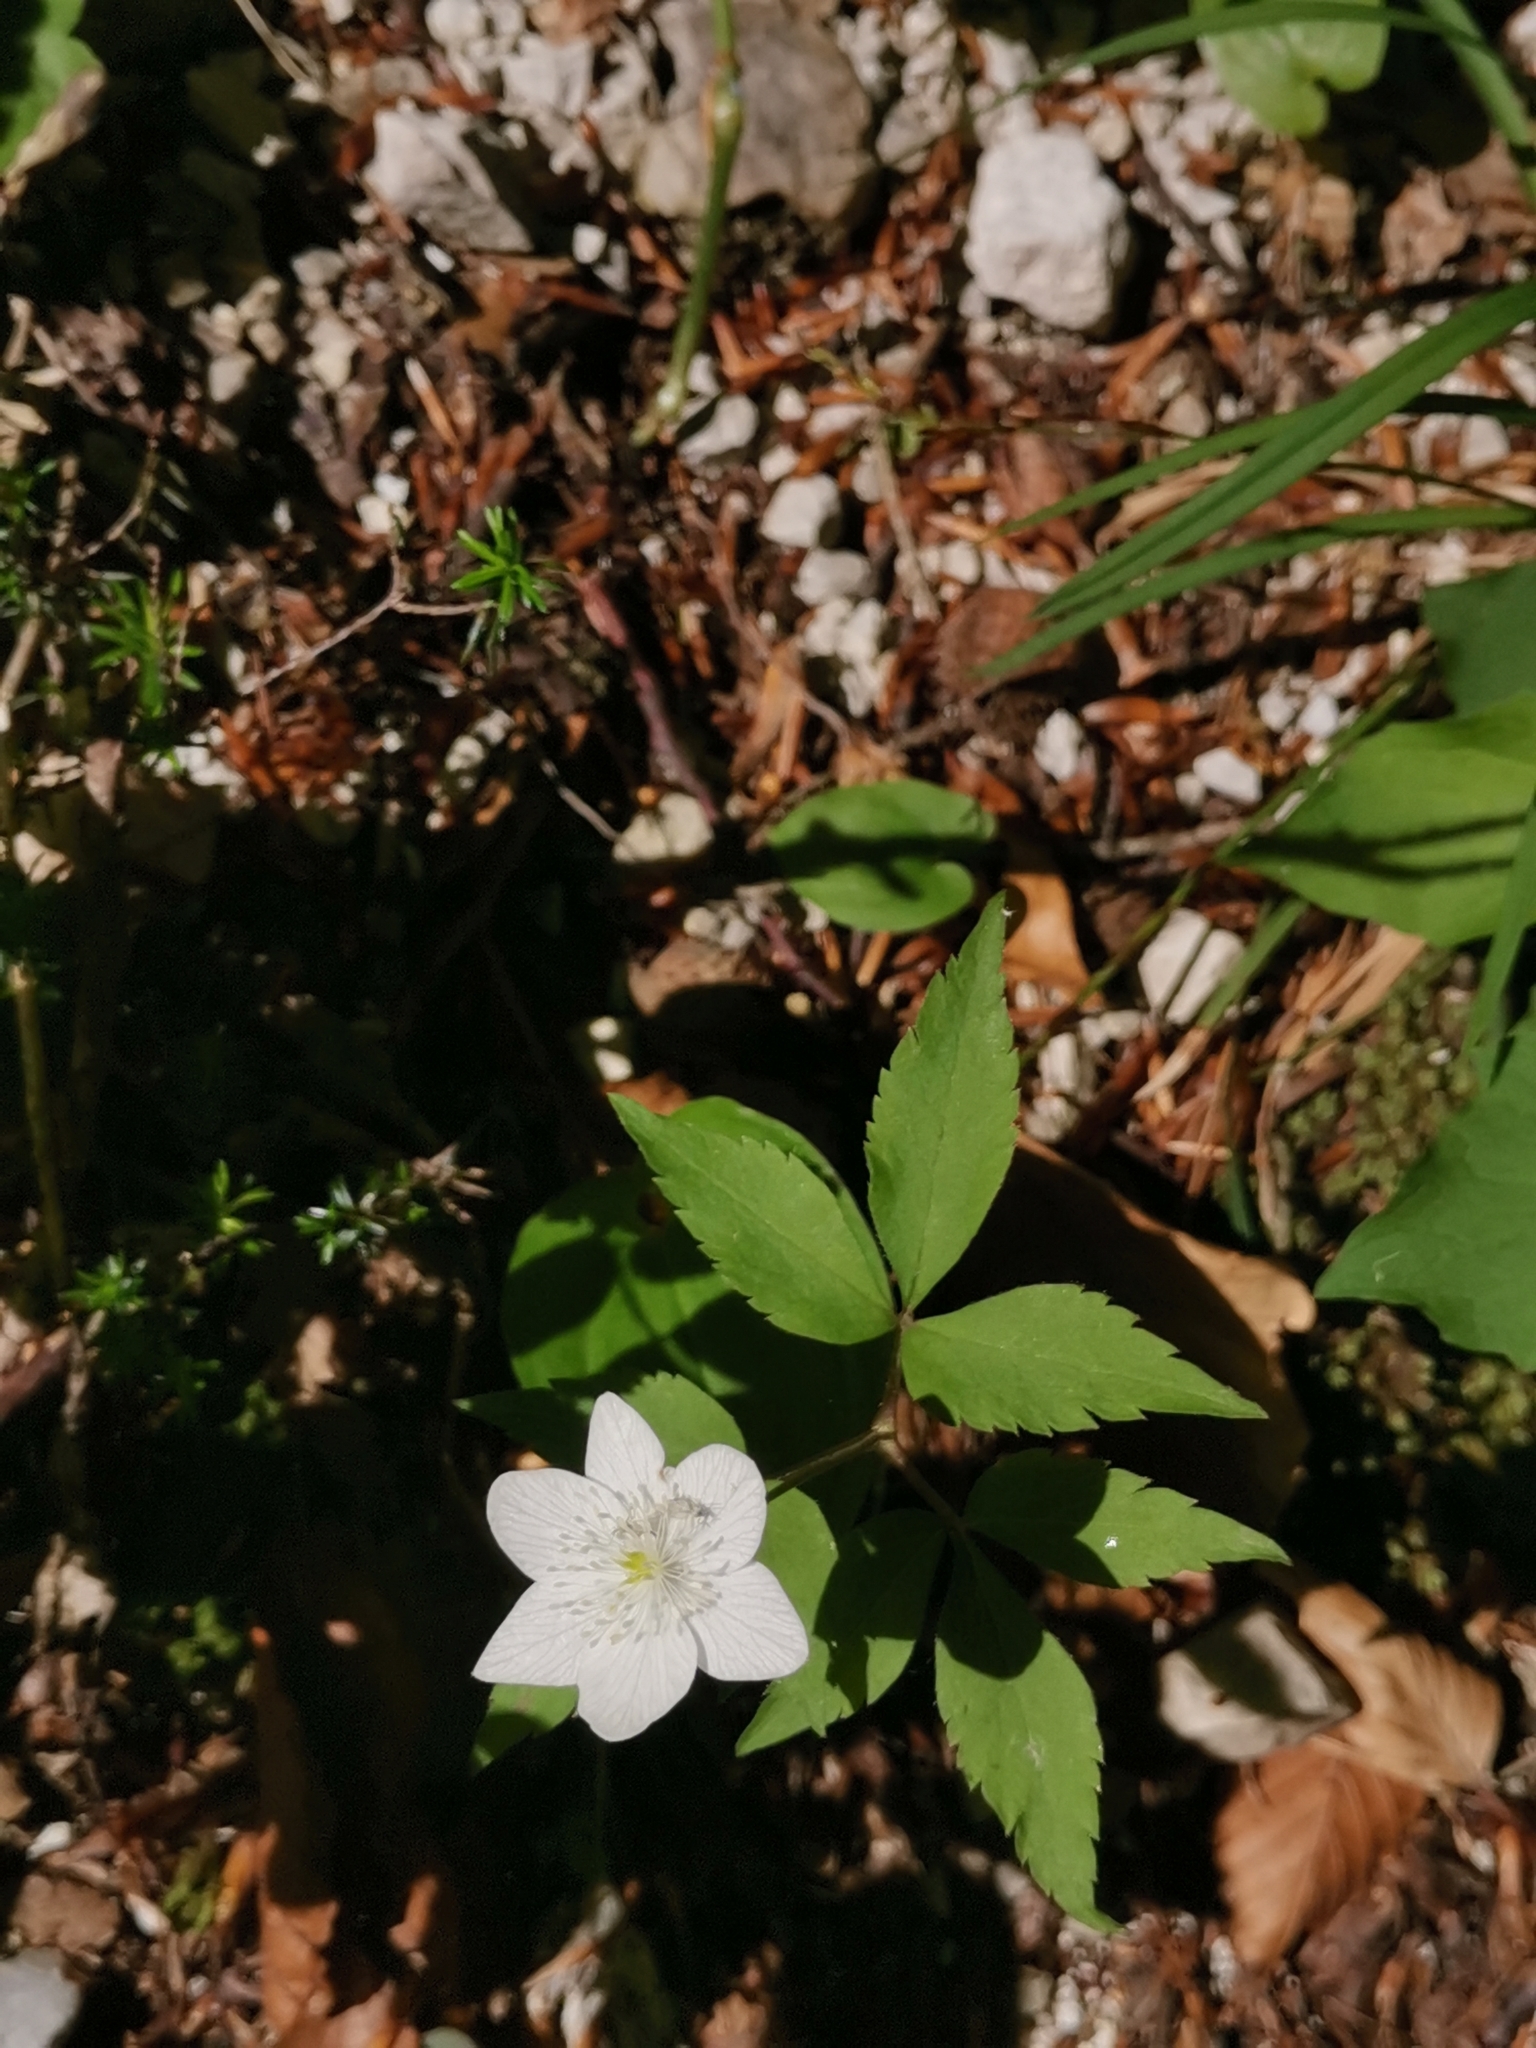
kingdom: Plantae
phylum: Tracheophyta
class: Magnoliopsida
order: Ranunculales
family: Ranunculaceae
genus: Anemone
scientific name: Anemone trifolia
